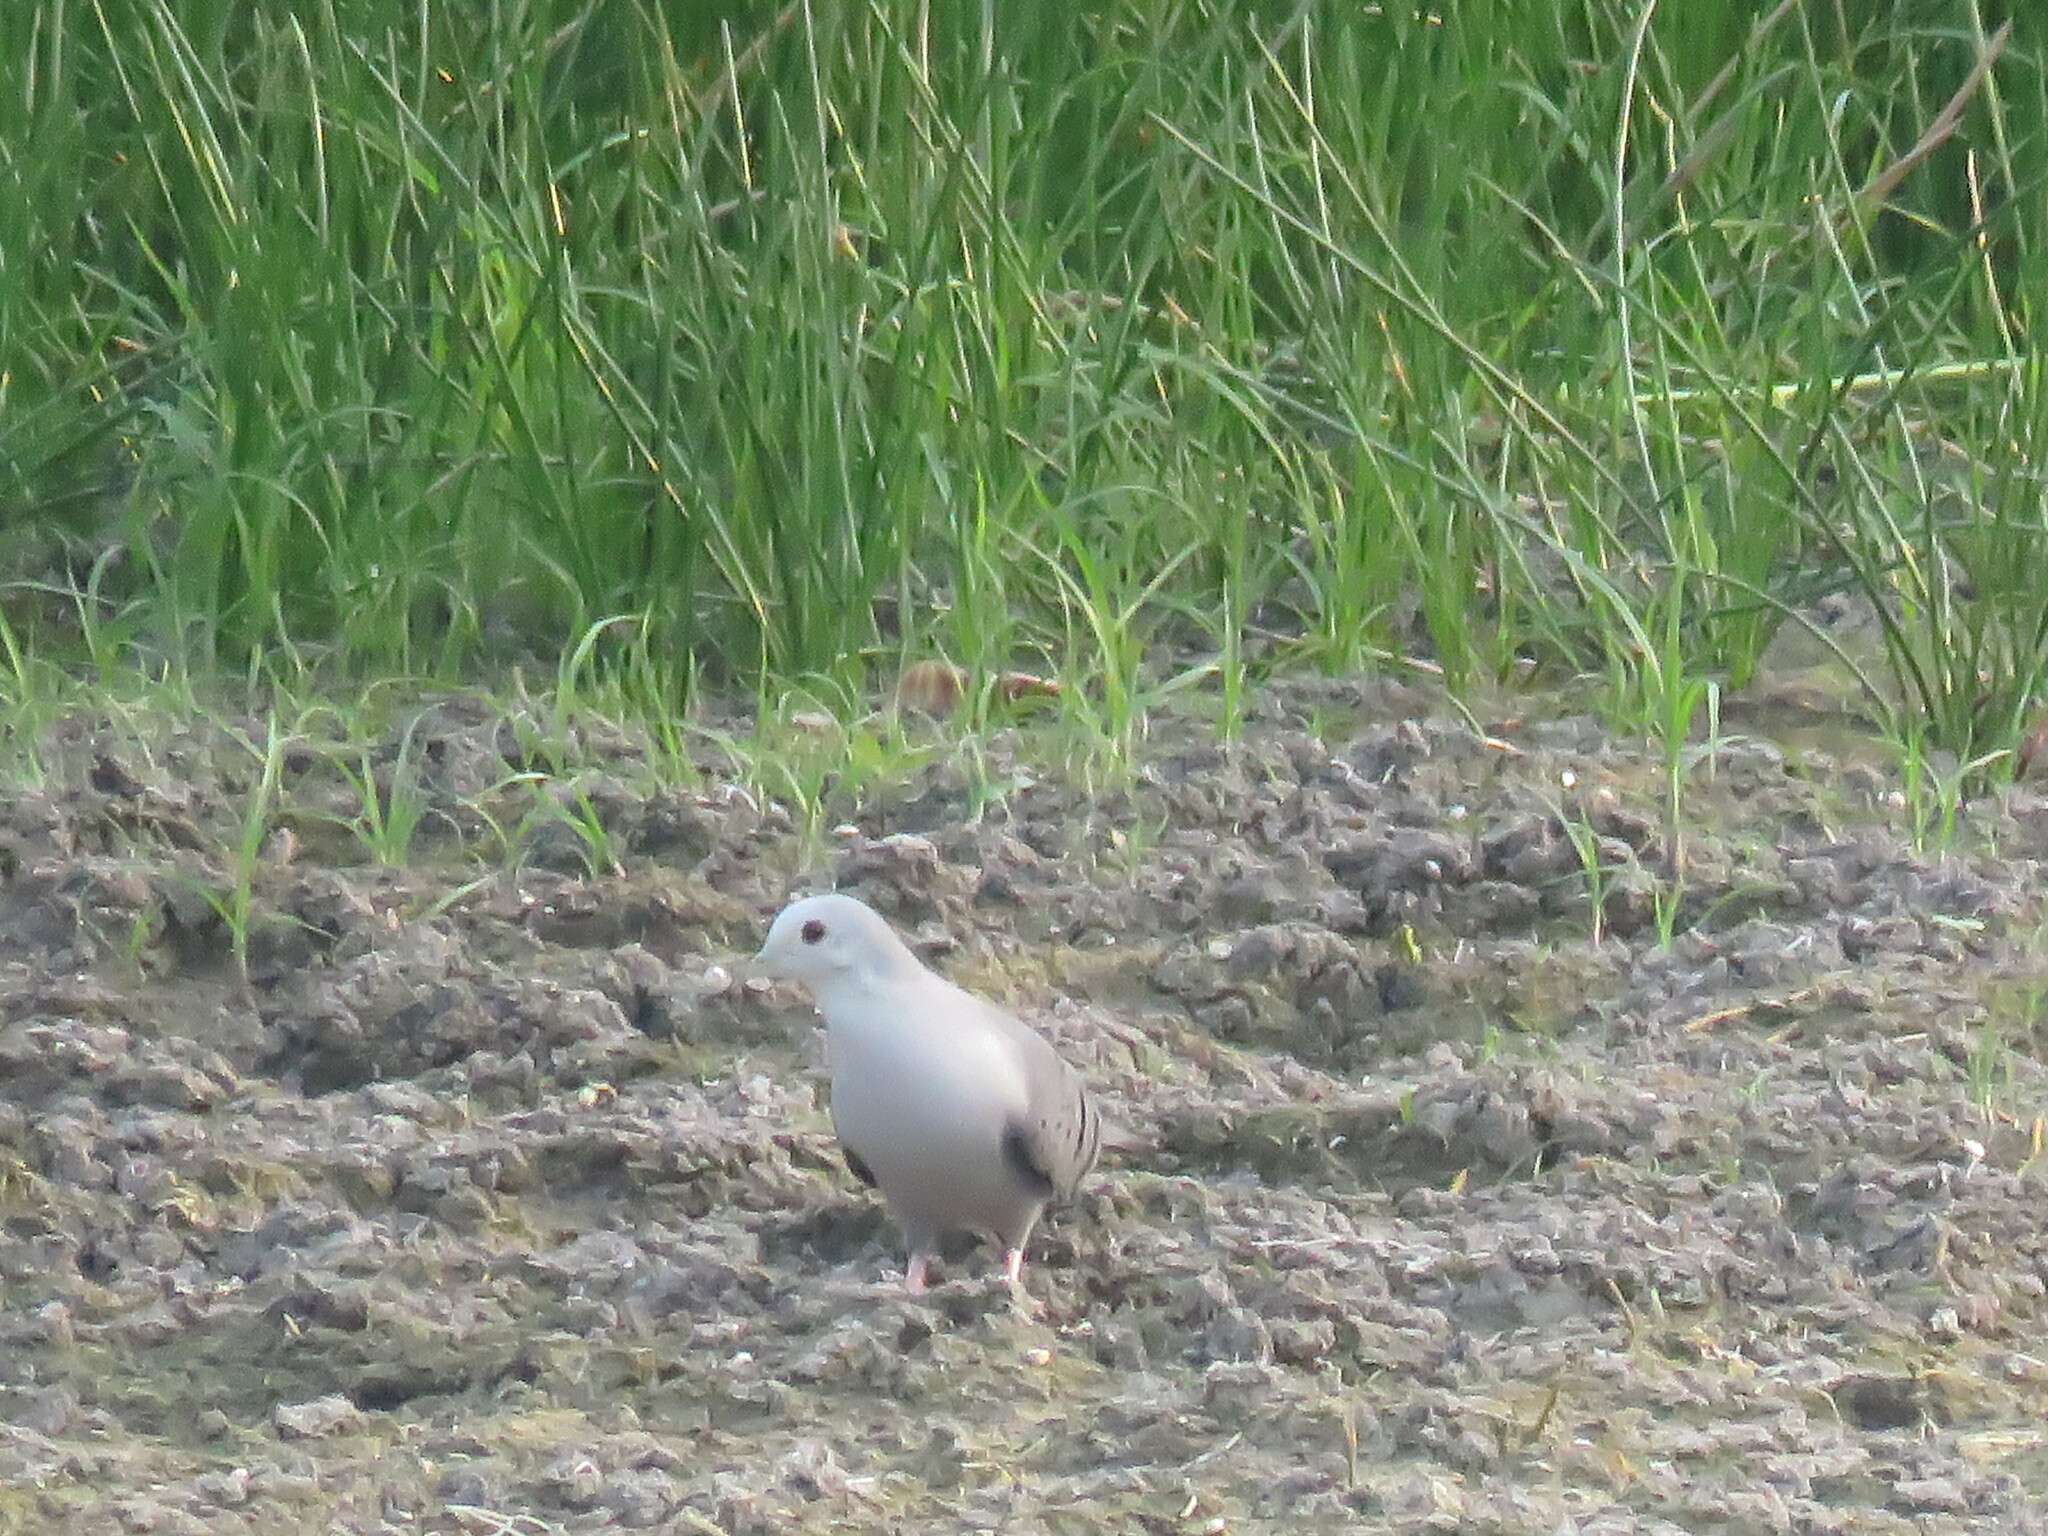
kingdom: Animalia
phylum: Chordata
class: Aves
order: Columbiformes
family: Columbidae
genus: Claravis
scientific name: Claravis pretiosa
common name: Blue ground-dove
